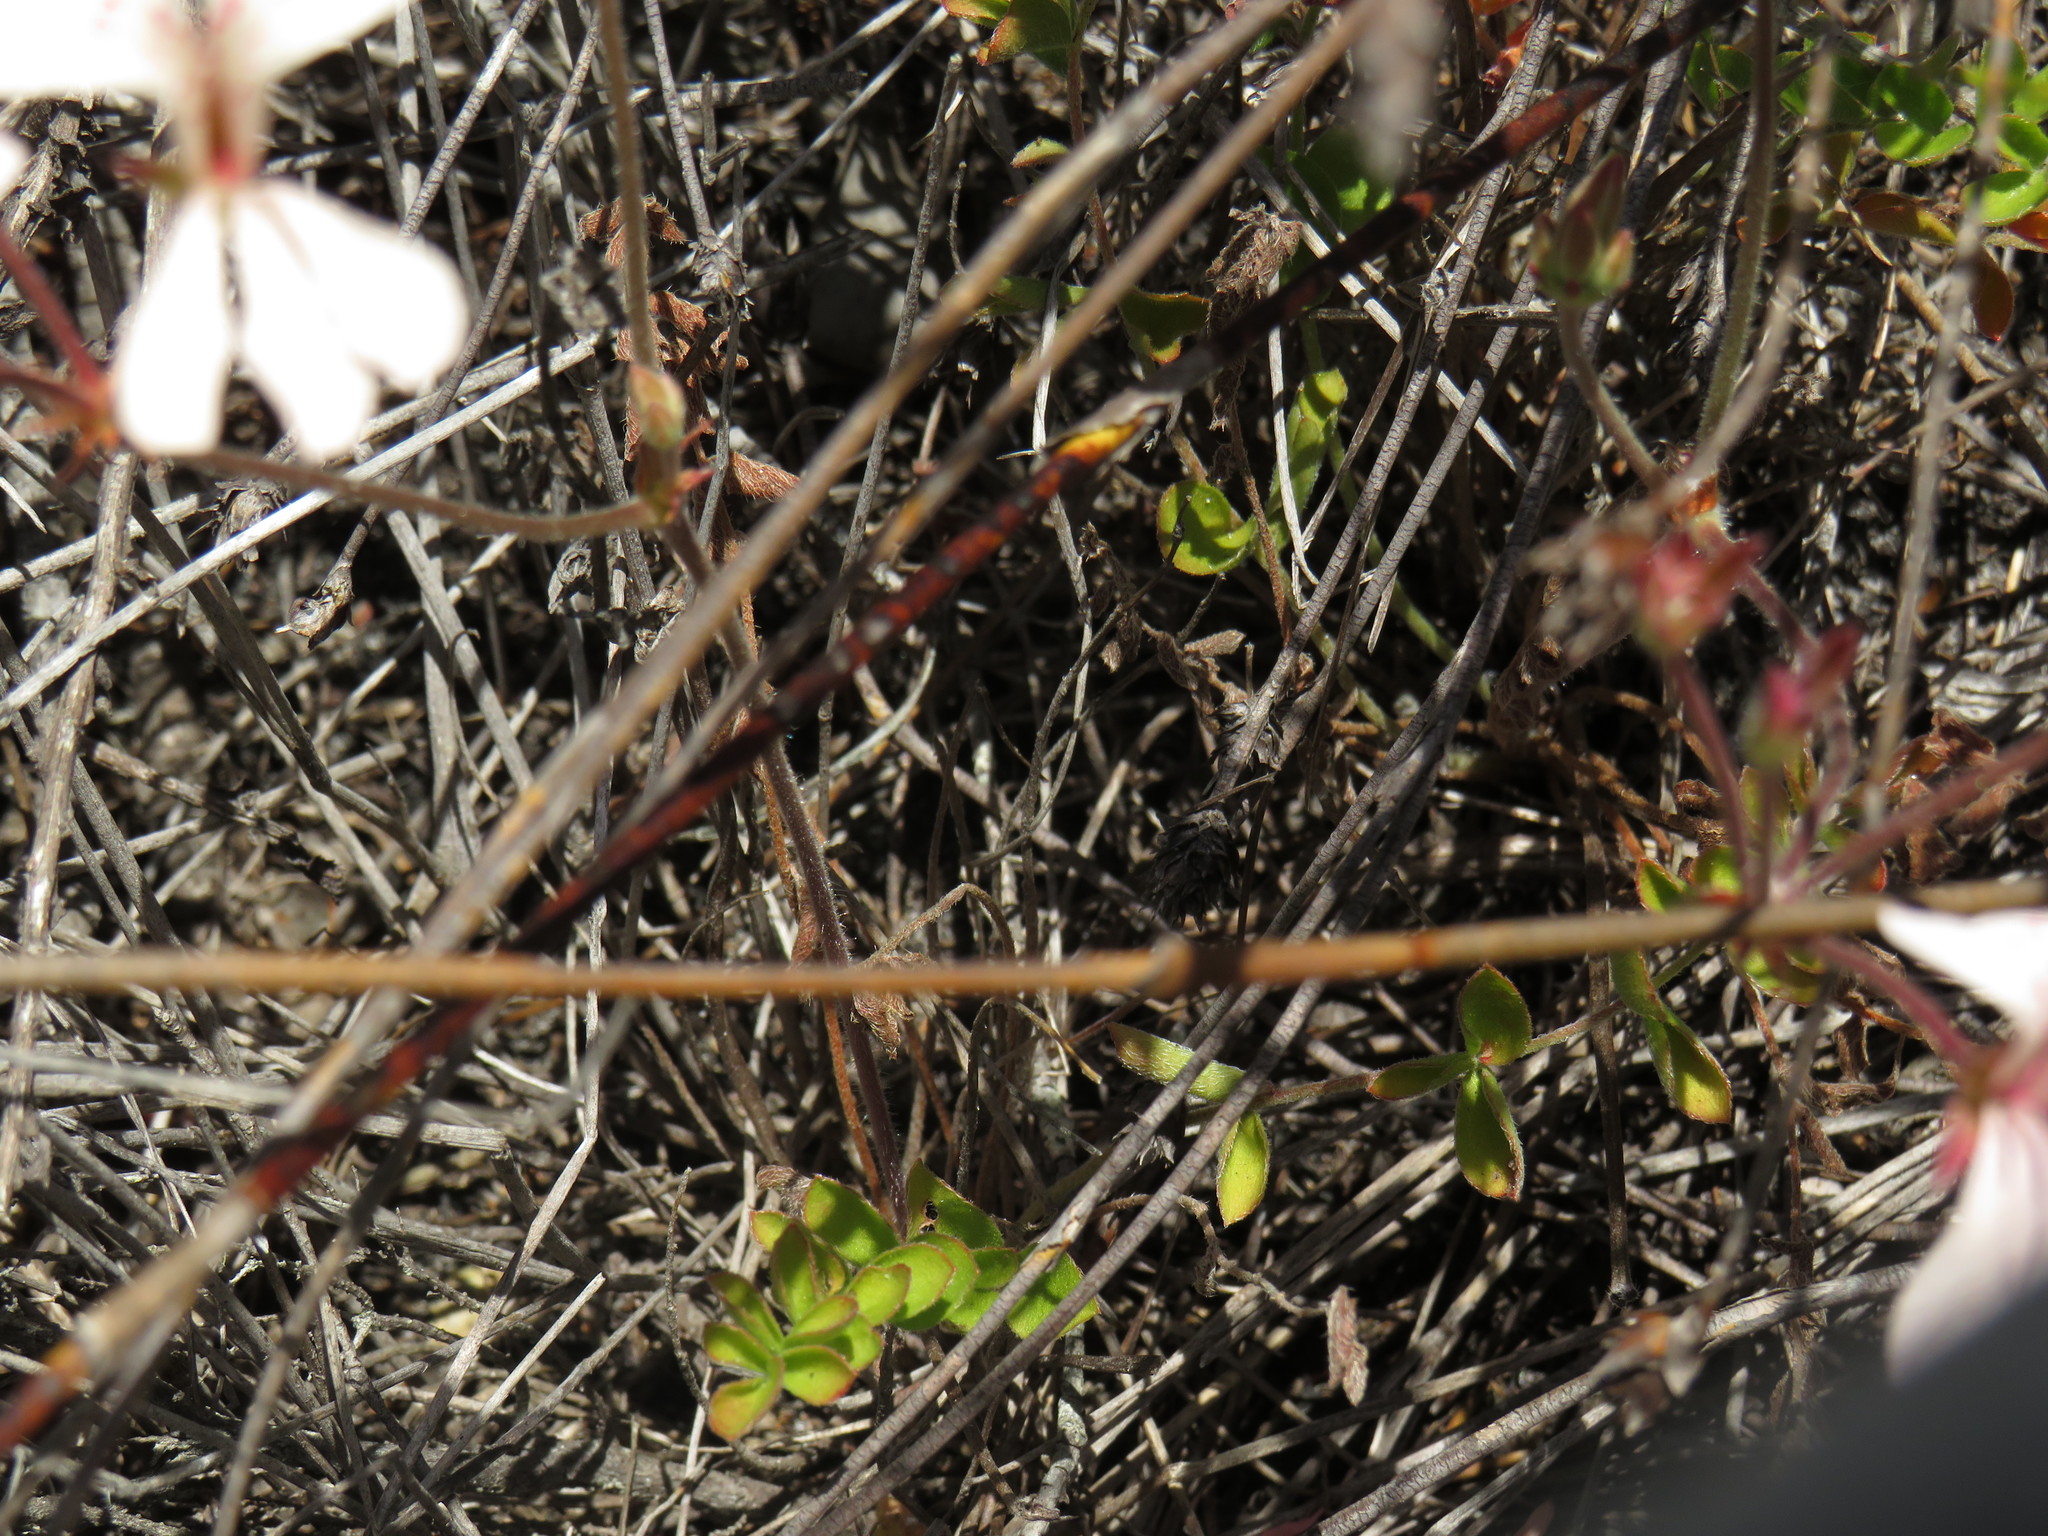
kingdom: Plantae
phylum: Tracheophyta
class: Magnoliopsida
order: Geraniales
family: Geraniaceae
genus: Pelargonium
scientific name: Pelargonium pinnatum
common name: Pinnated pelargonium
